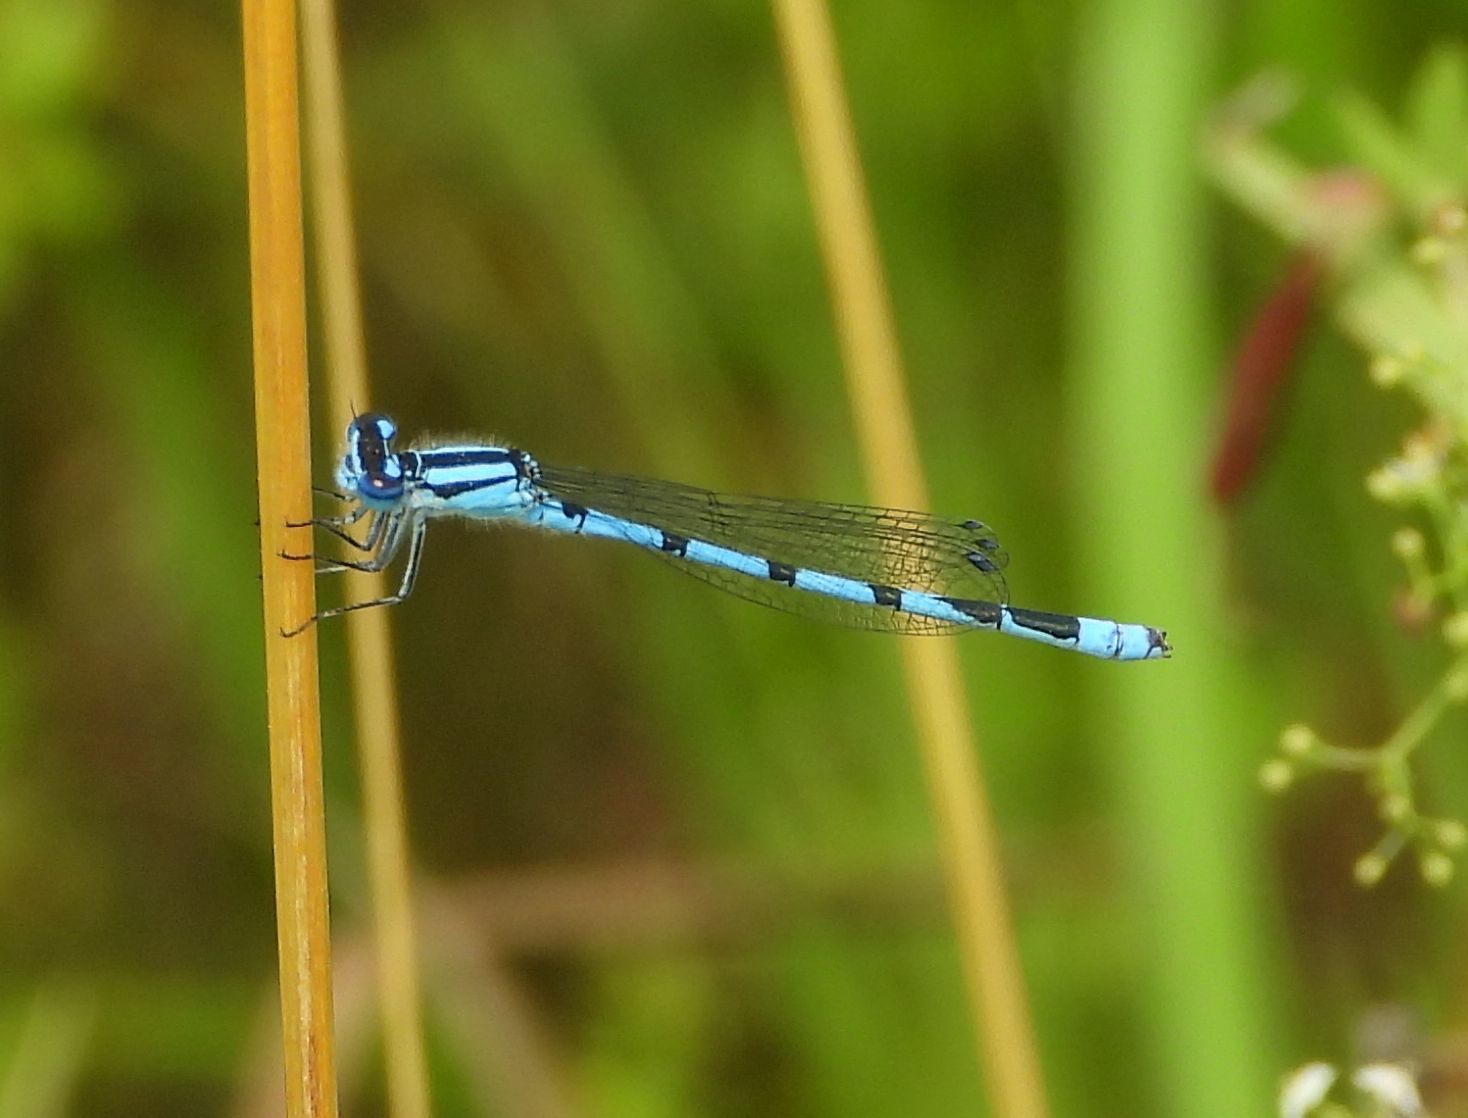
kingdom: Animalia
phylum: Arthropoda
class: Insecta
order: Odonata
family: Coenagrionidae
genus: Enallagma
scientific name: Enallagma hageni
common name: Hagen's bluet
